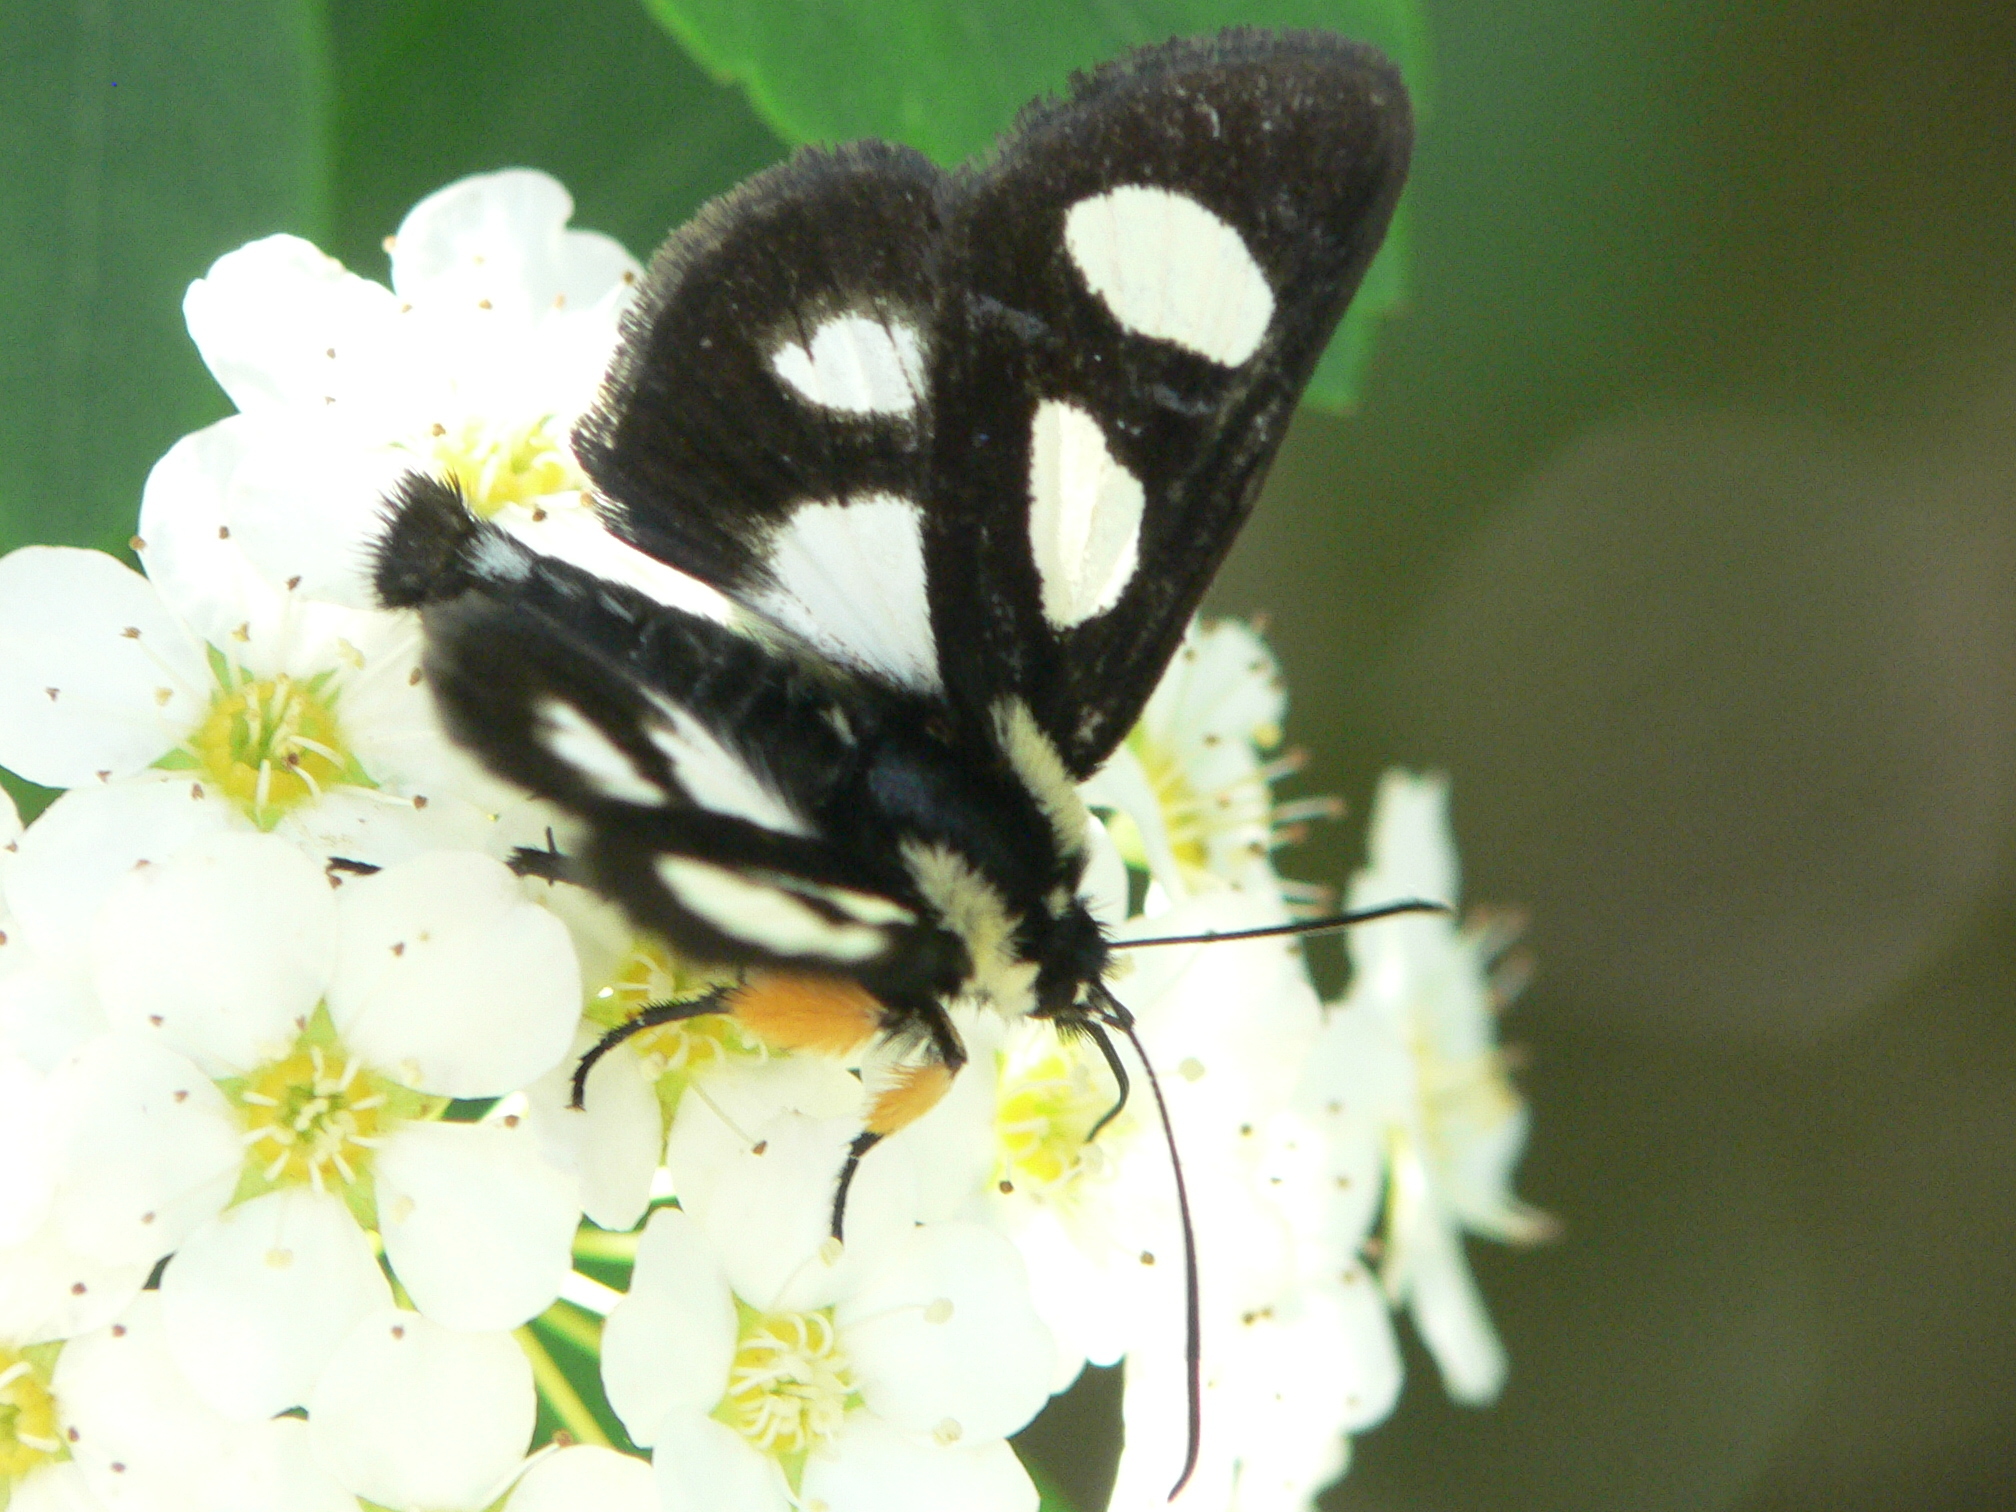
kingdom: Animalia
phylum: Arthropoda
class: Insecta
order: Lepidoptera
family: Noctuidae
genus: Alypia
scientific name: Alypia octomaculata
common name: Eight-spotted forester
